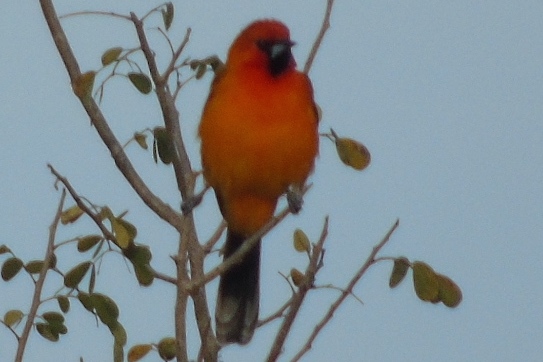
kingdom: Animalia
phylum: Chordata
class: Aves
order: Passeriformes
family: Icteridae
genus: Icterus
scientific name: Icterus pustulatus
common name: Streak-backed oriole
